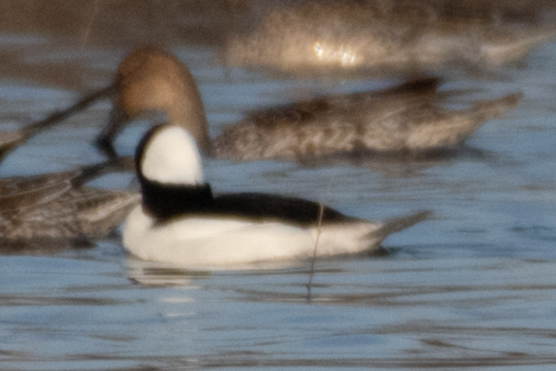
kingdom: Animalia
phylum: Chordata
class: Aves
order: Anseriformes
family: Anatidae
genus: Bucephala
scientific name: Bucephala albeola
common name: Bufflehead
